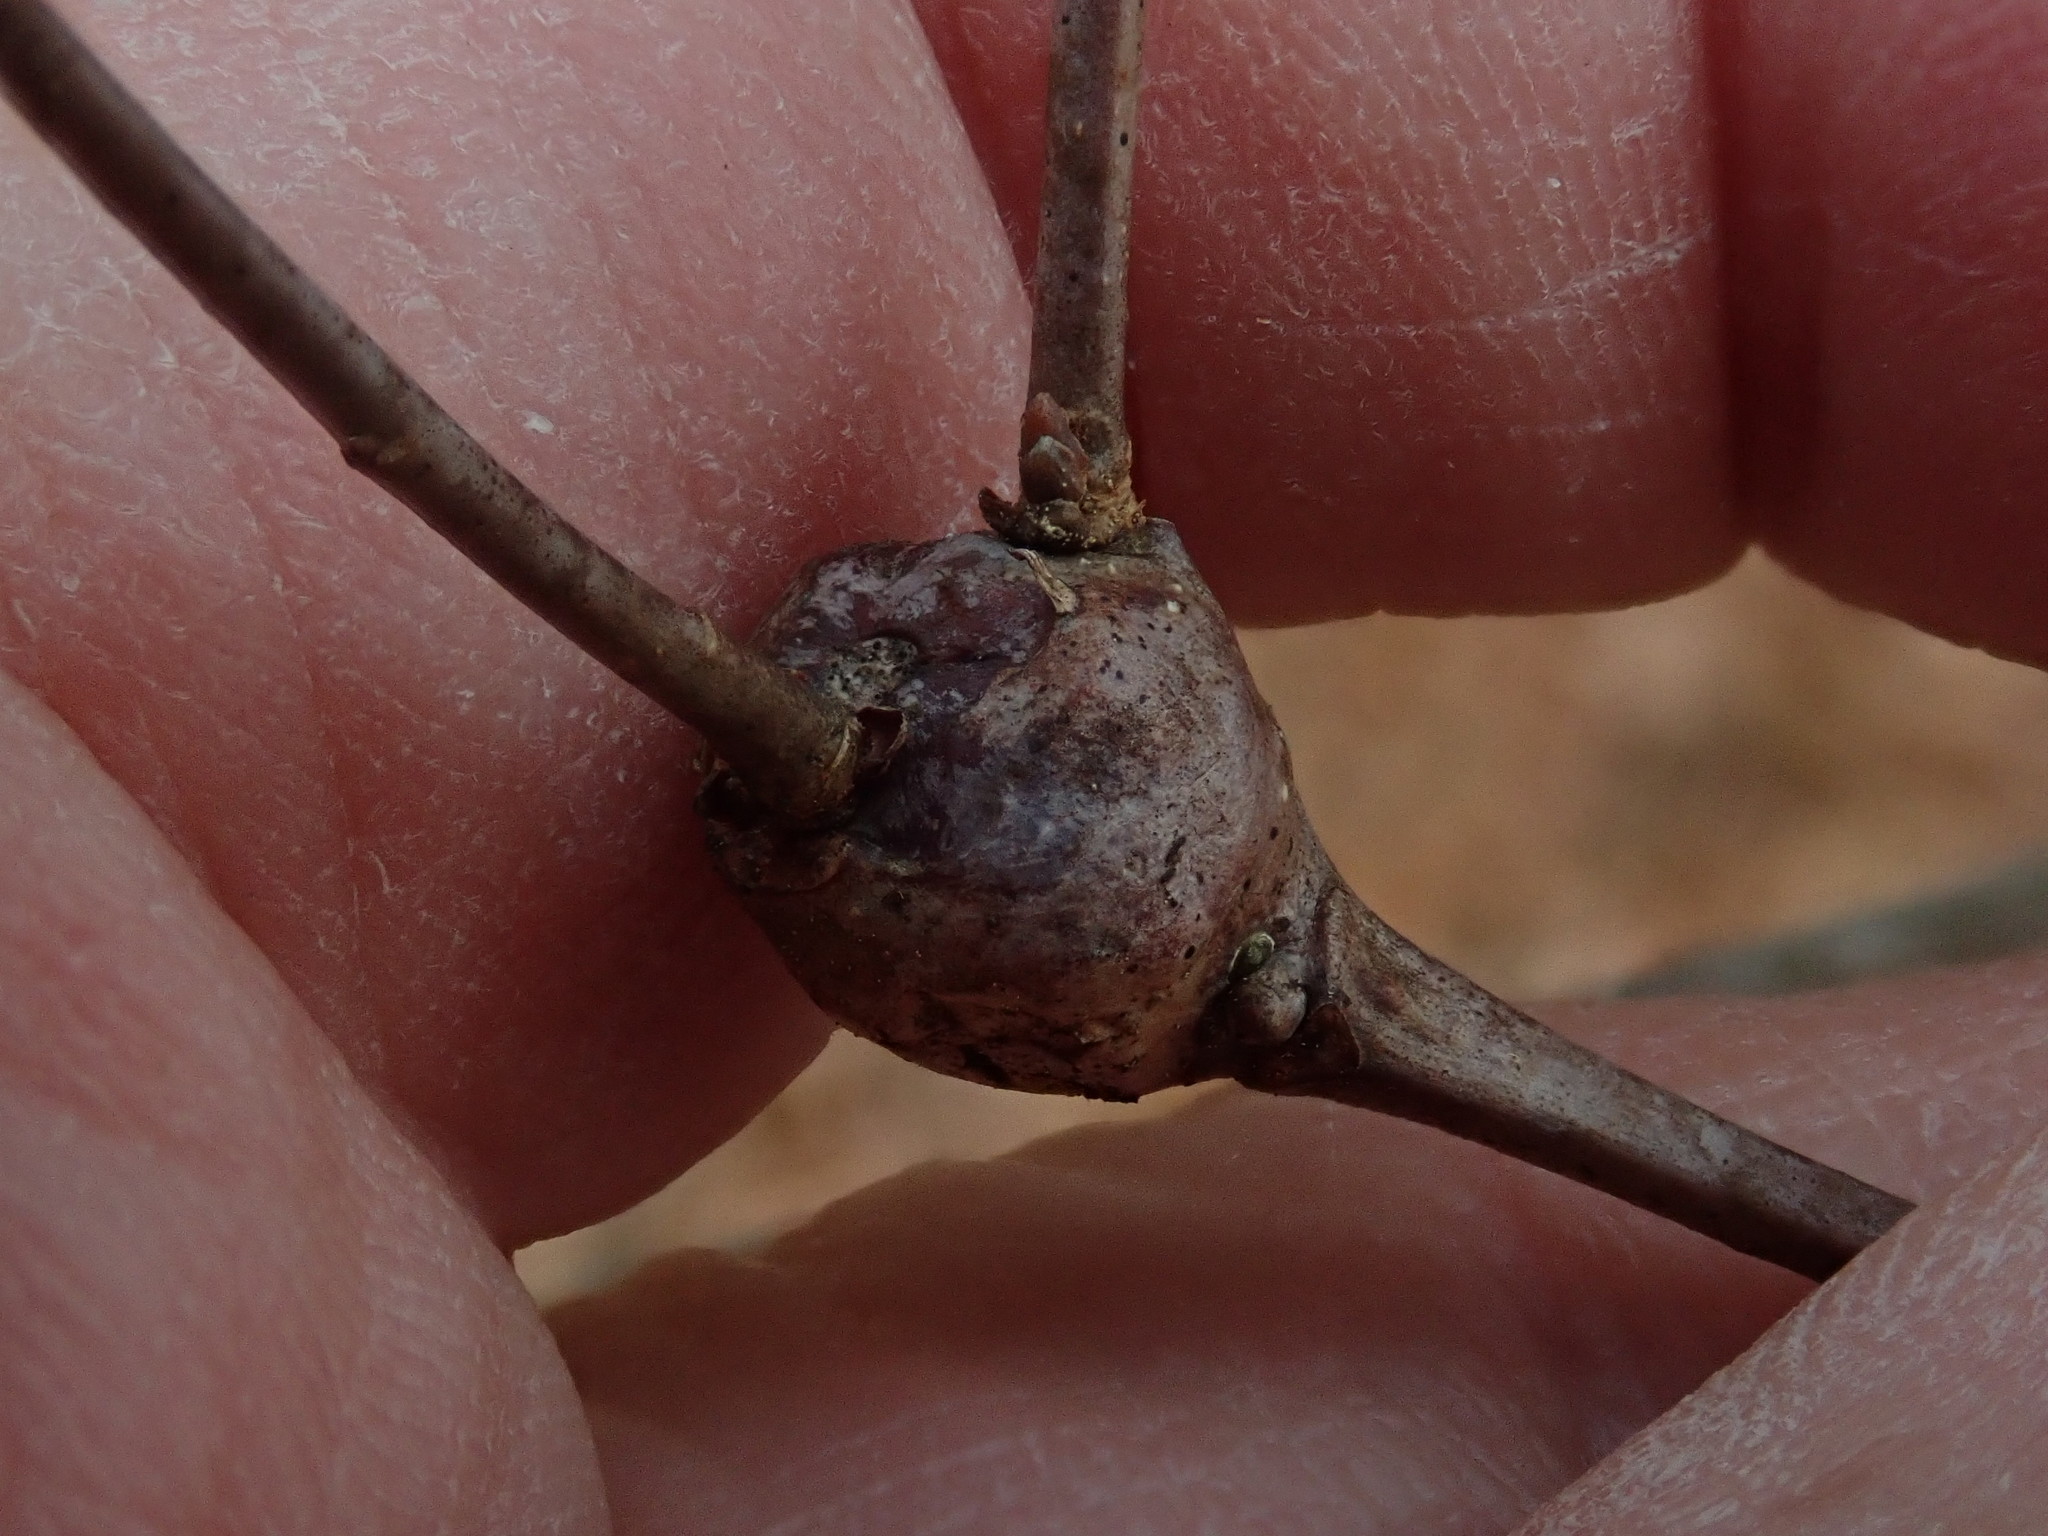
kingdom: Animalia
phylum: Arthropoda
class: Insecta
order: Hymenoptera
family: Cynipidae
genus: Callirhytis
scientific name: Callirhytis clavula
